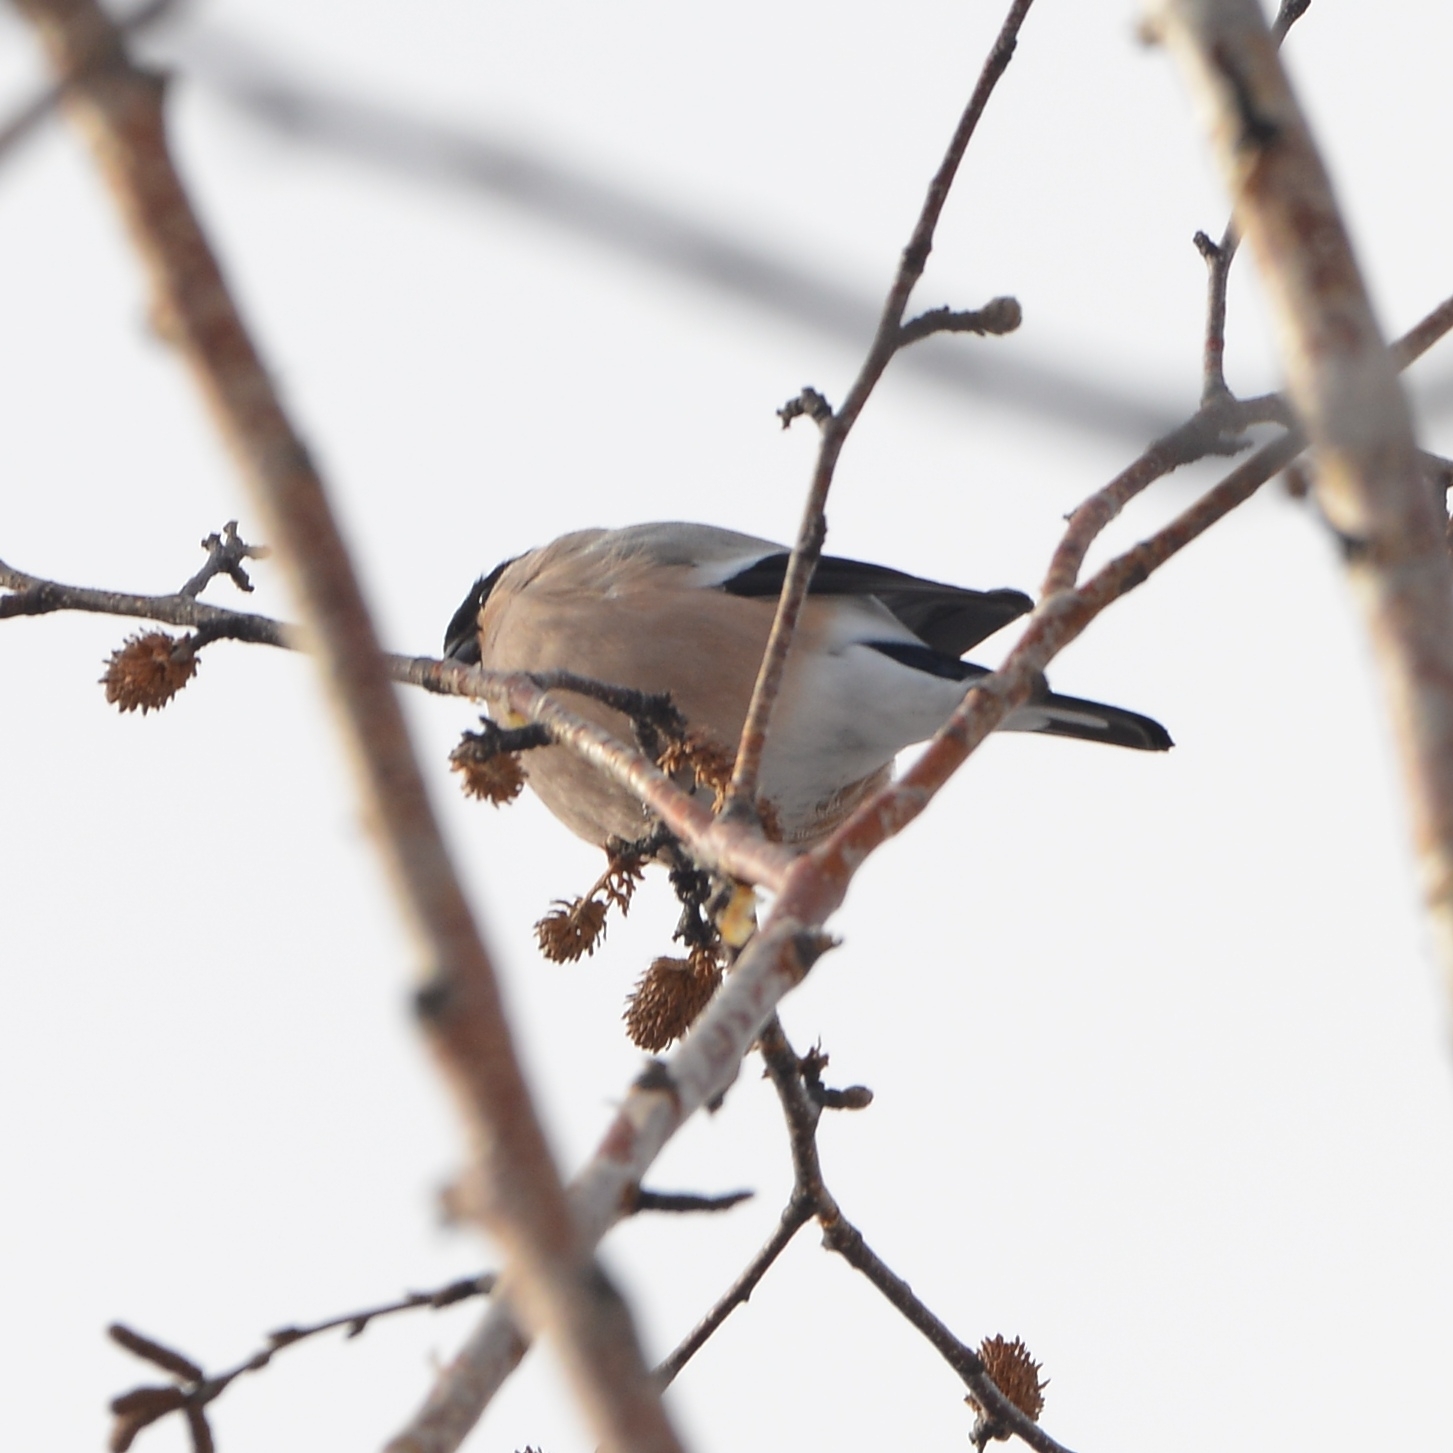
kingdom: Animalia
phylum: Chordata
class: Aves
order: Passeriformes
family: Fringillidae
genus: Pyrrhula
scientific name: Pyrrhula pyrrhula
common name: Eurasian bullfinch
